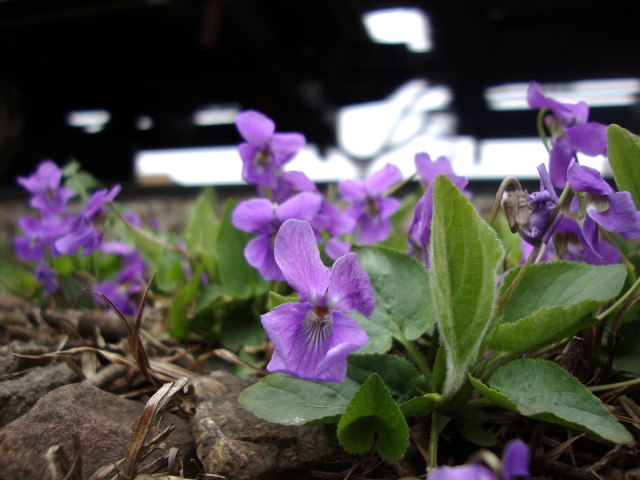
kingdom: Plantae
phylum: Tracheophyta
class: Magnoliopsida
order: Malpighiales
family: Violaceae
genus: Viola
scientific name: Viola hirta
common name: Hairy violet
